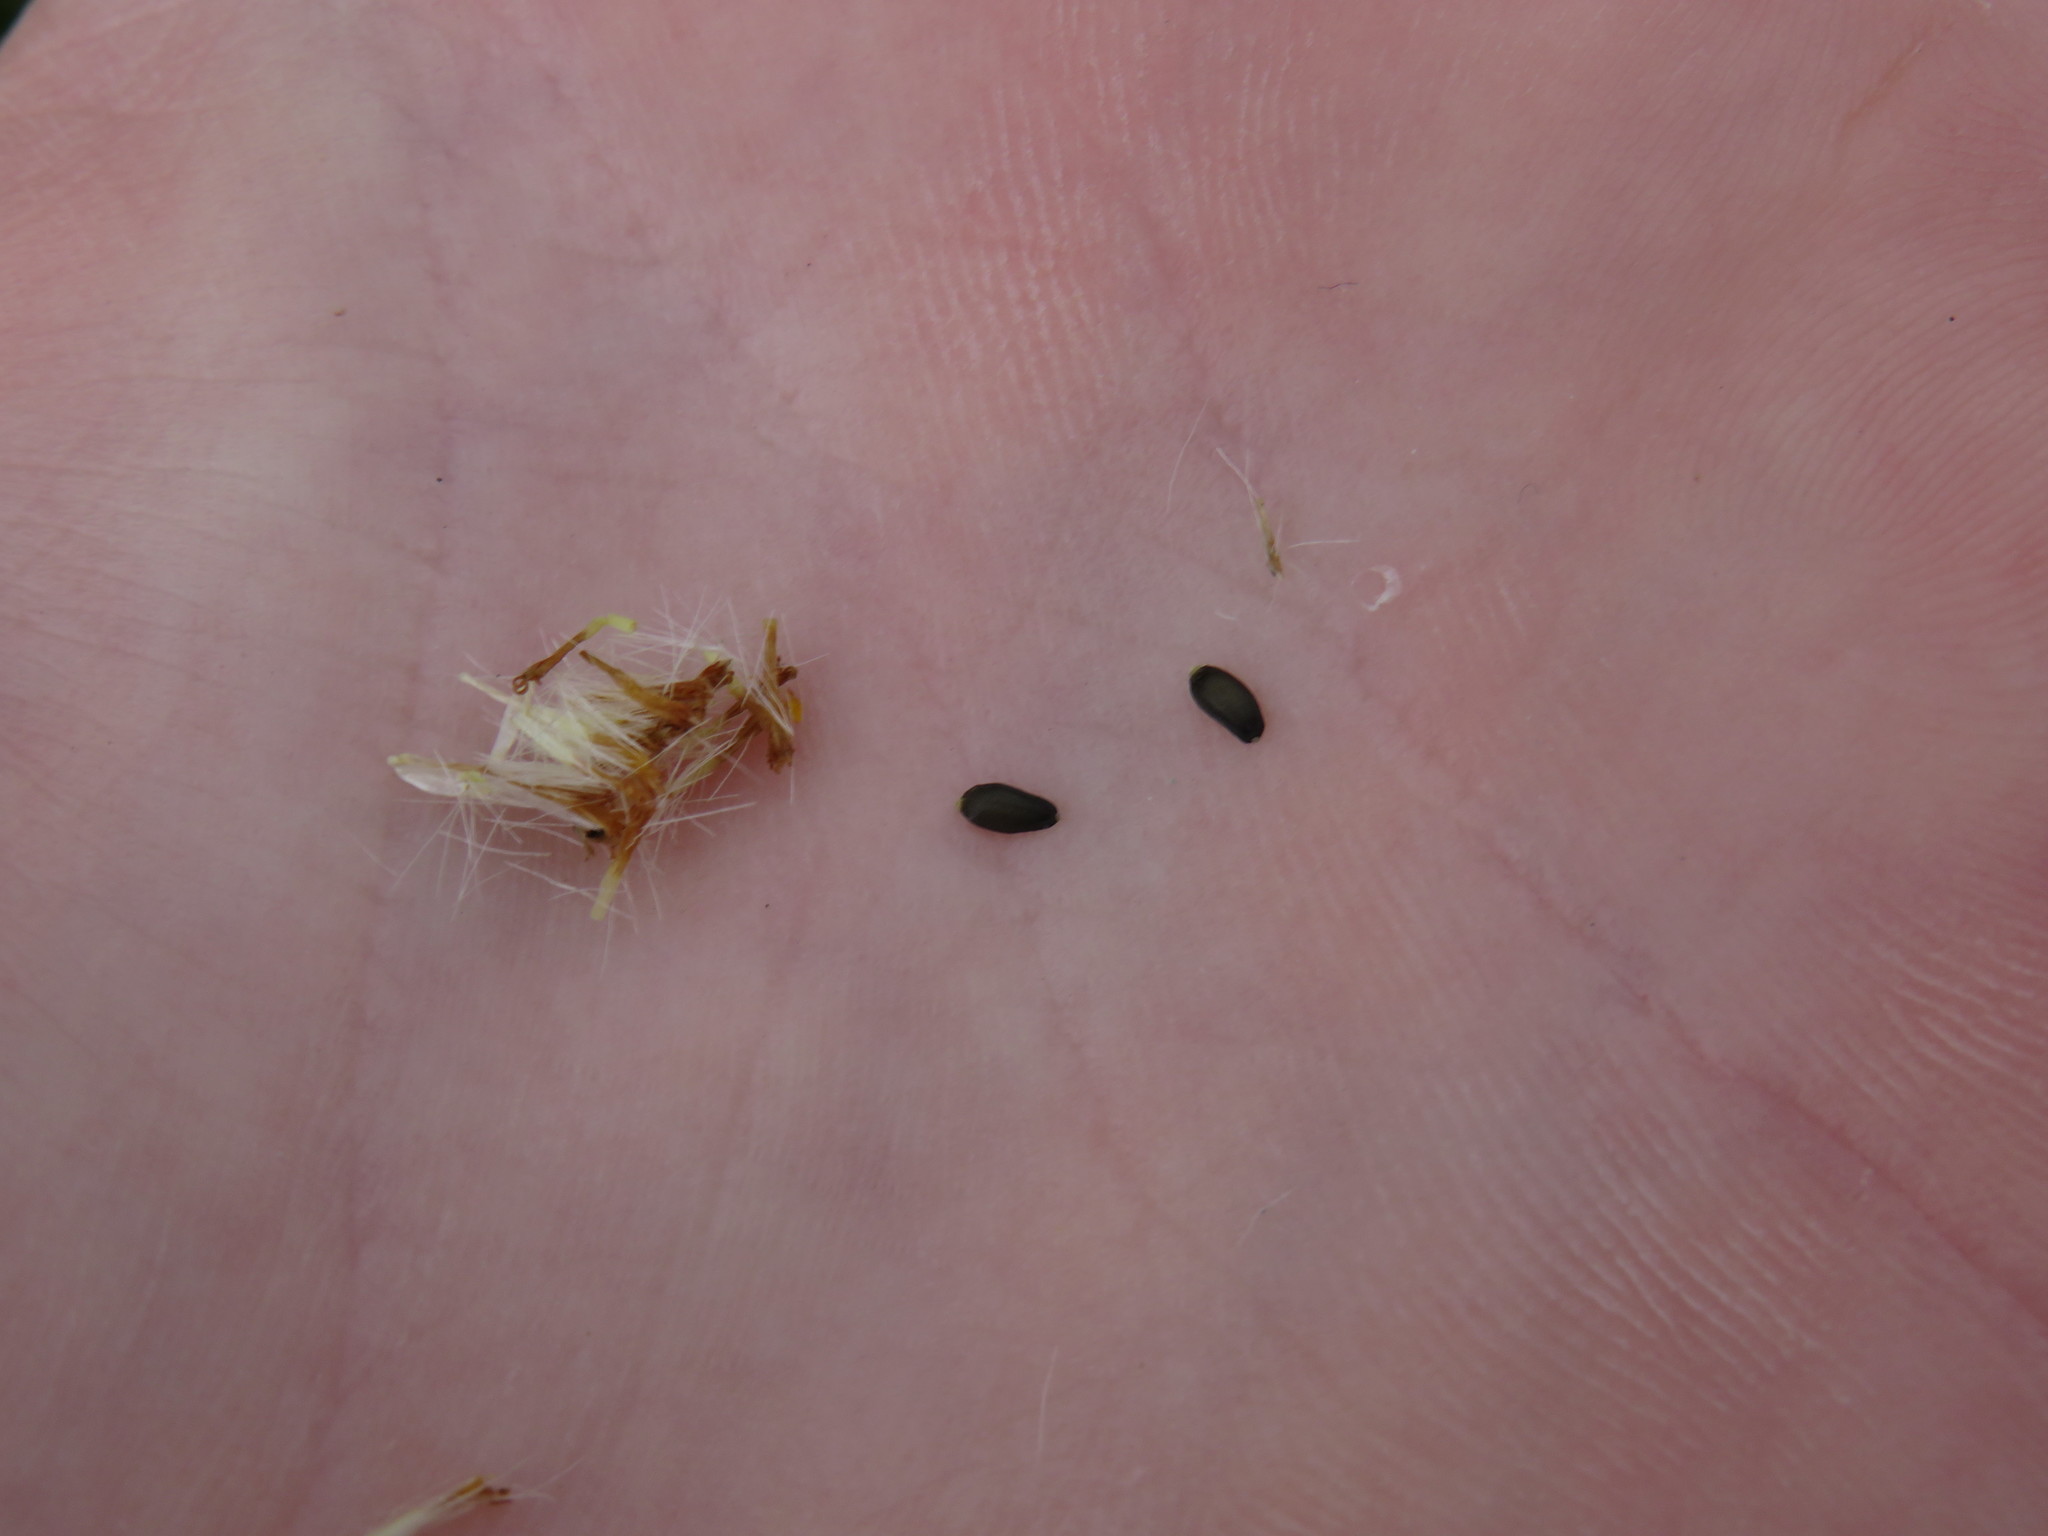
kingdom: Plantae
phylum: Tracheophyta
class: Magnoliopsida
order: Asterales
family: Asteraceae
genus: Felicia
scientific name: Felicia aethiopica
